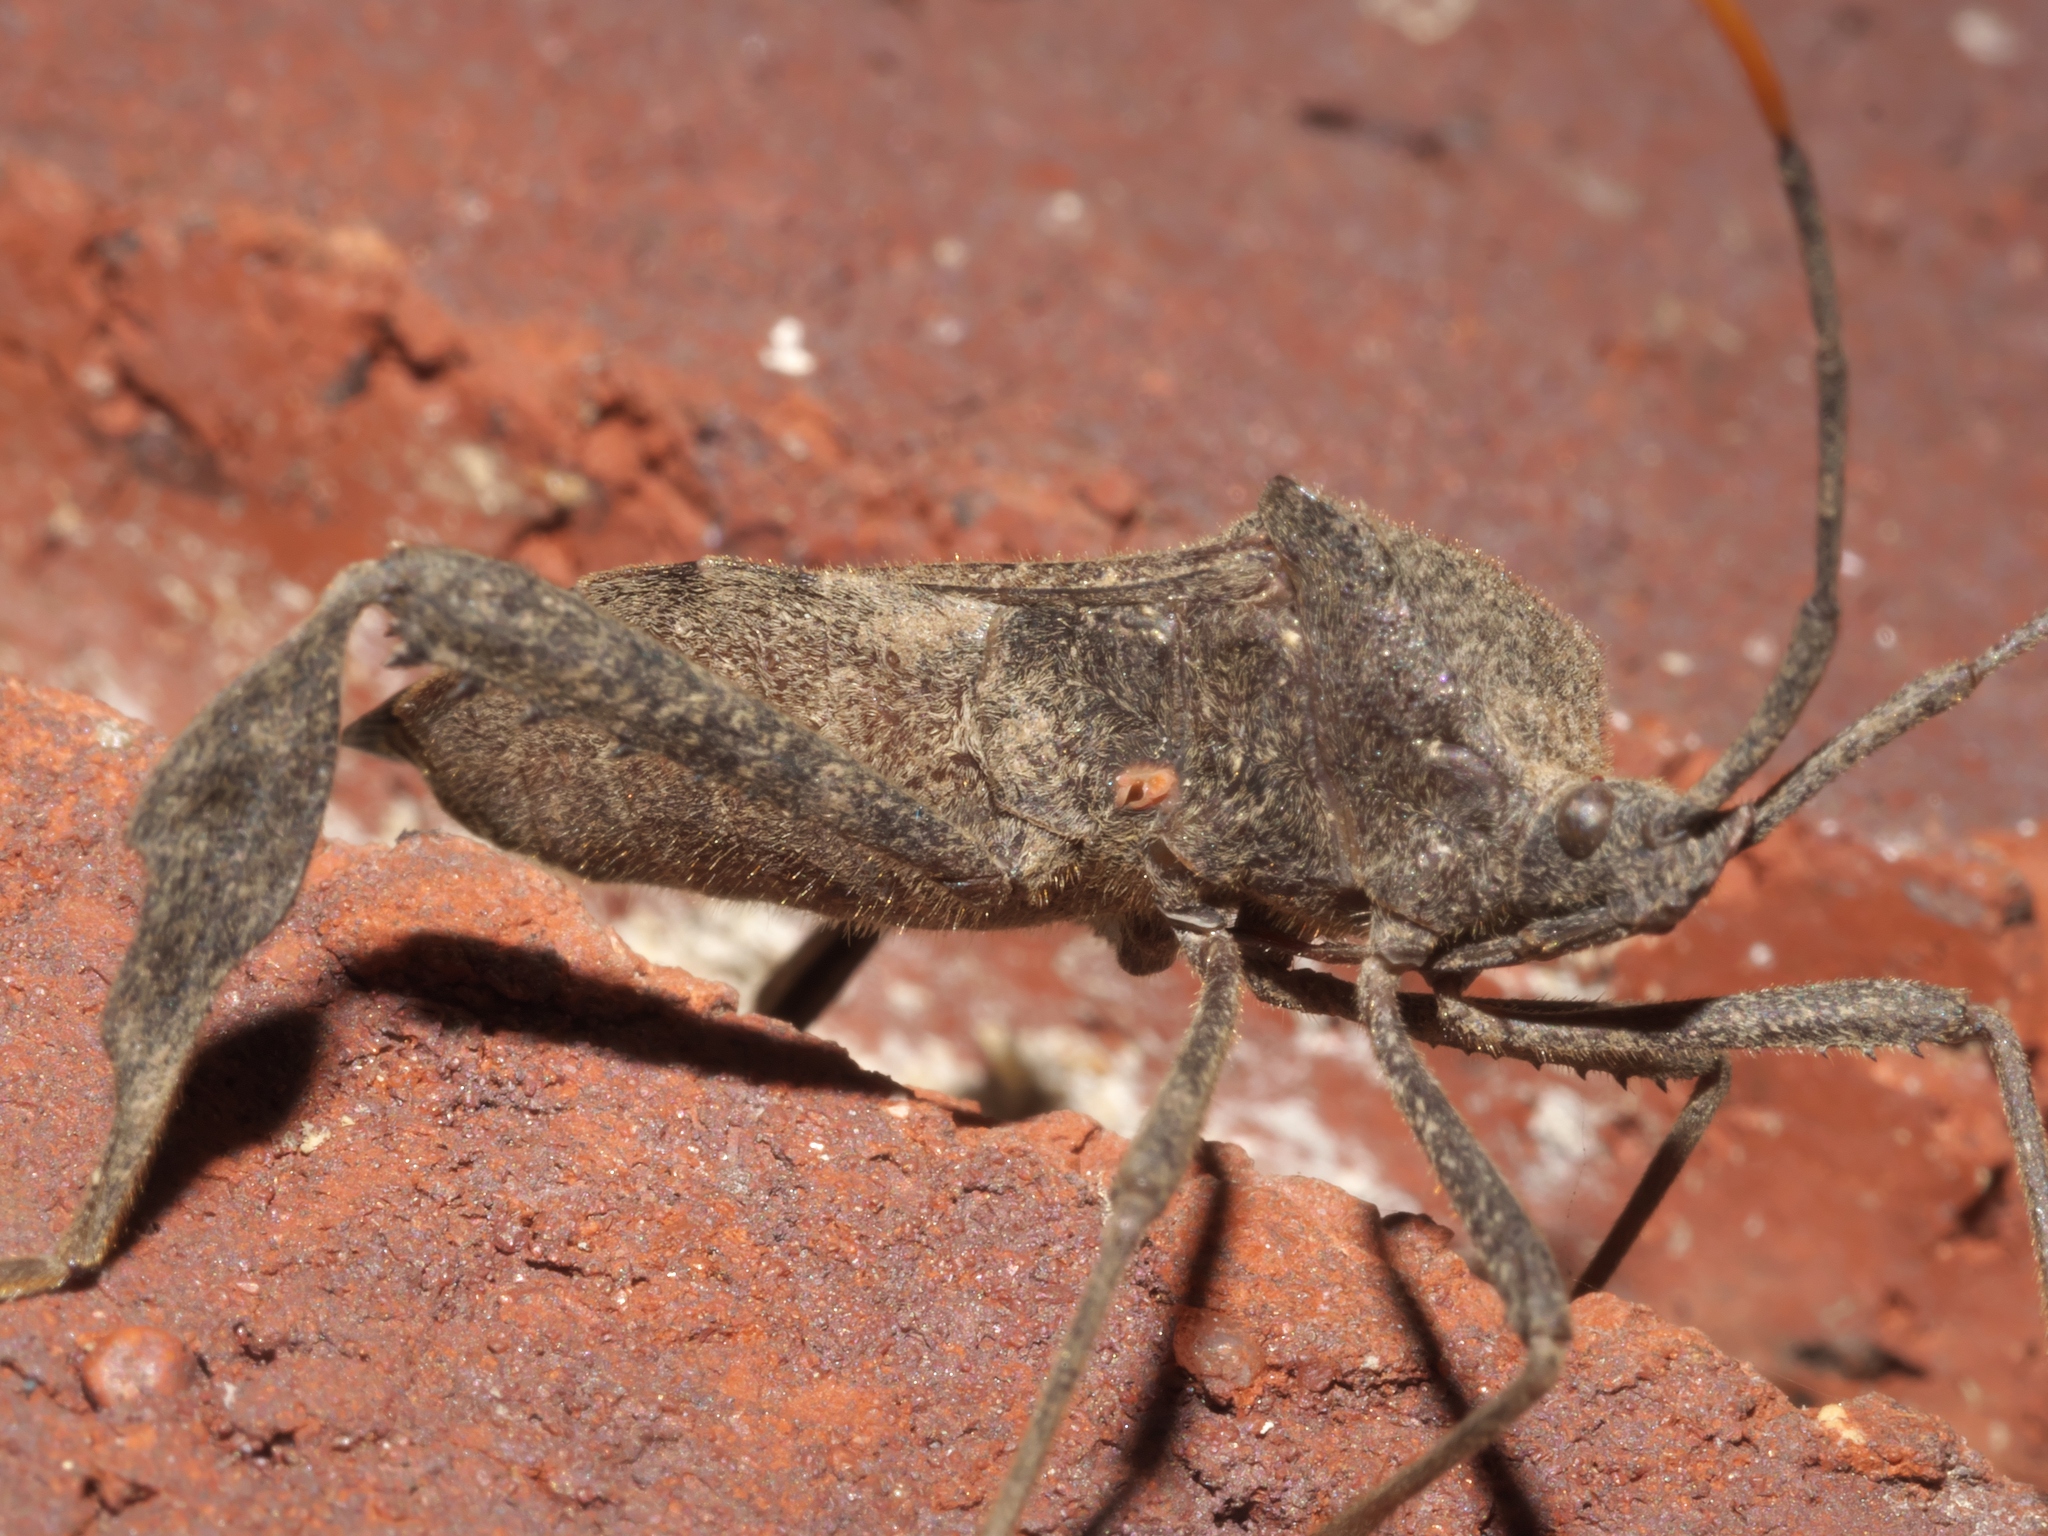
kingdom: Animalia
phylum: Arthropoda
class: Insecta
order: Hemiptera
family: Coreidae
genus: Acanthocephala
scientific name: Acanthocephala terminalis
